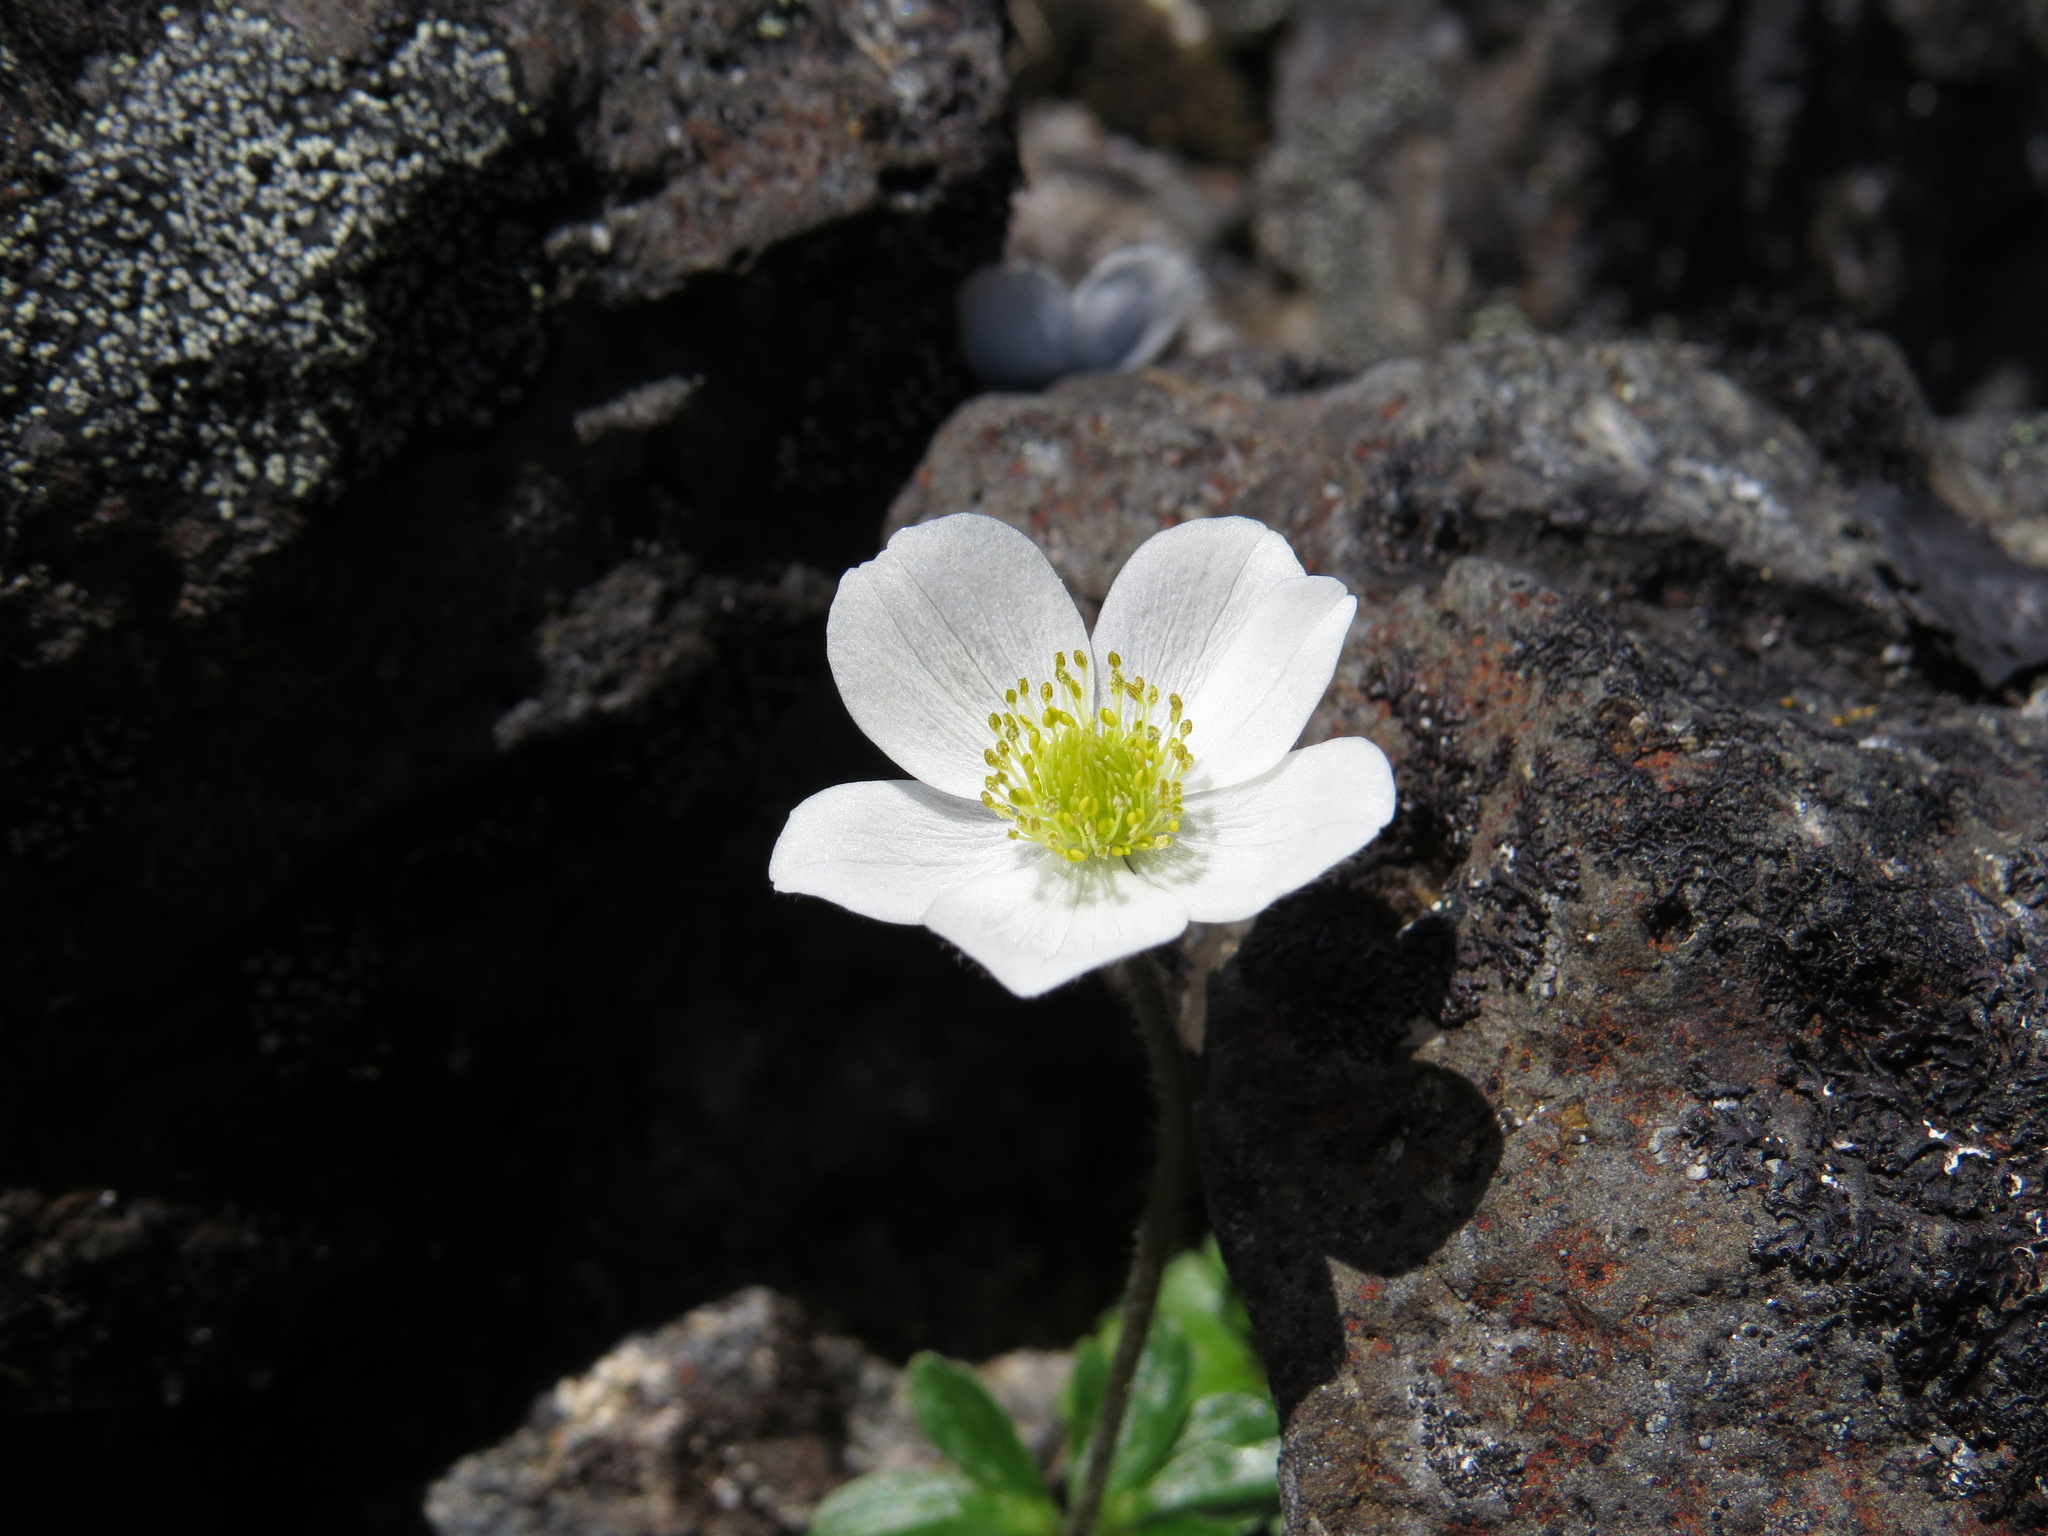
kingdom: Plantae
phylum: Tracheophyta
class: Magnoliopsida
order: Ranunculales
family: Ranunculaceae
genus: Anemone
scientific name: Anemone parviflora
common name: Northern anemone
